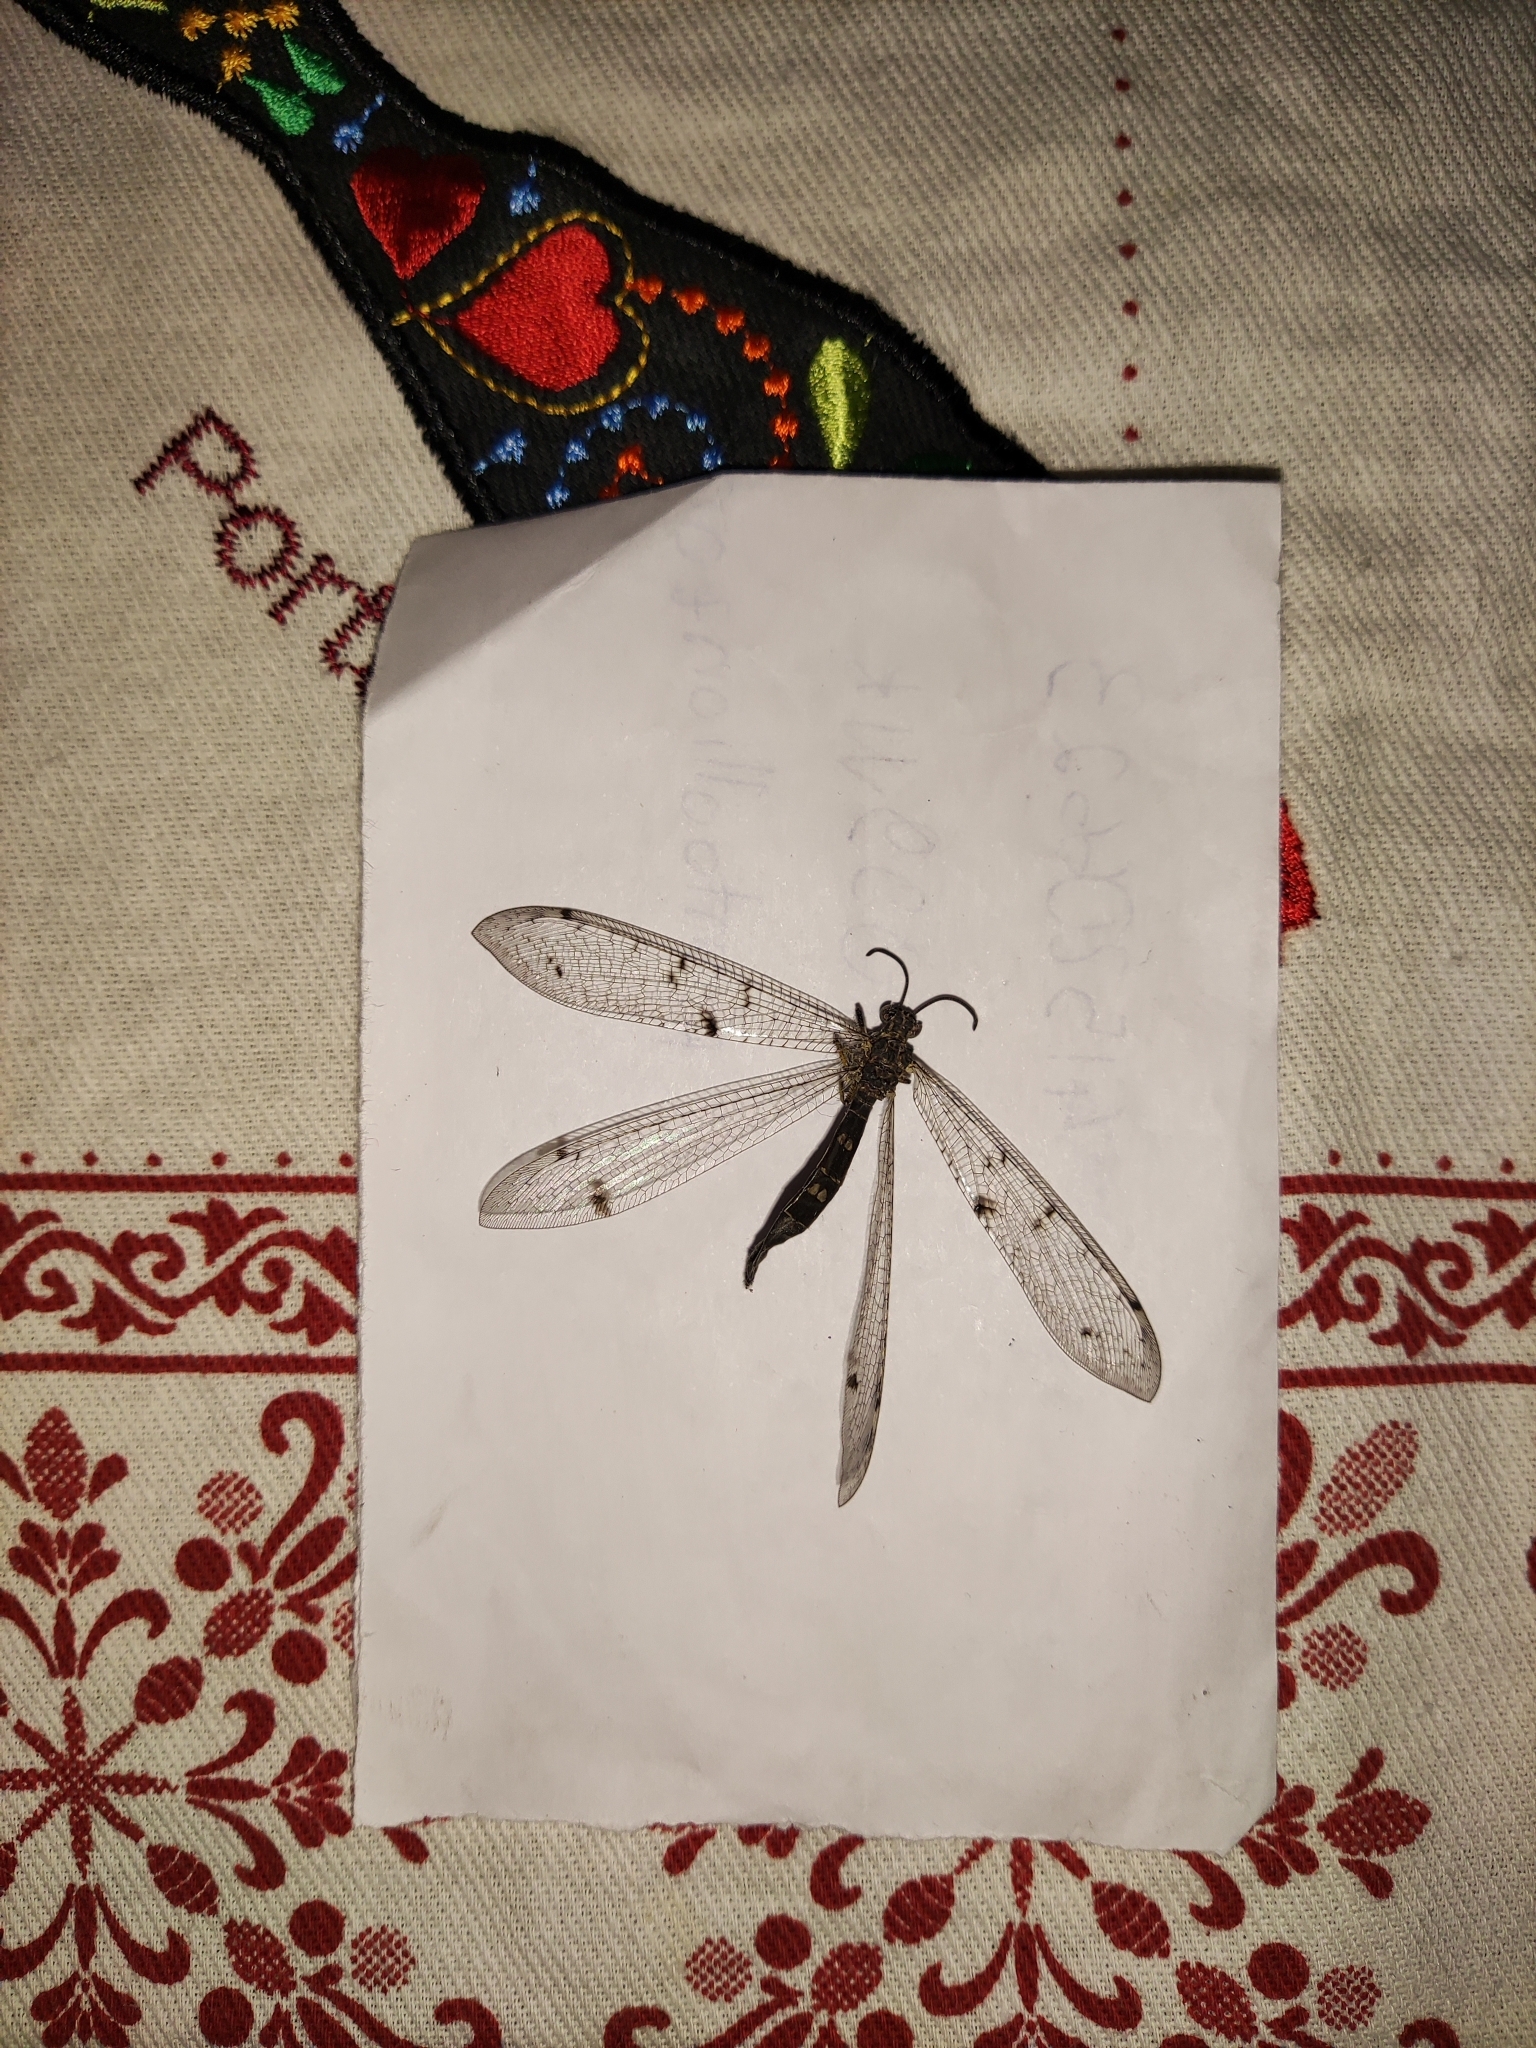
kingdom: Animalia
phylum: Arthropoda
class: Insecta
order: Neuroptera
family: Myrmeleontidae
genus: Distoleon
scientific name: Distoleon tetragrammicus
